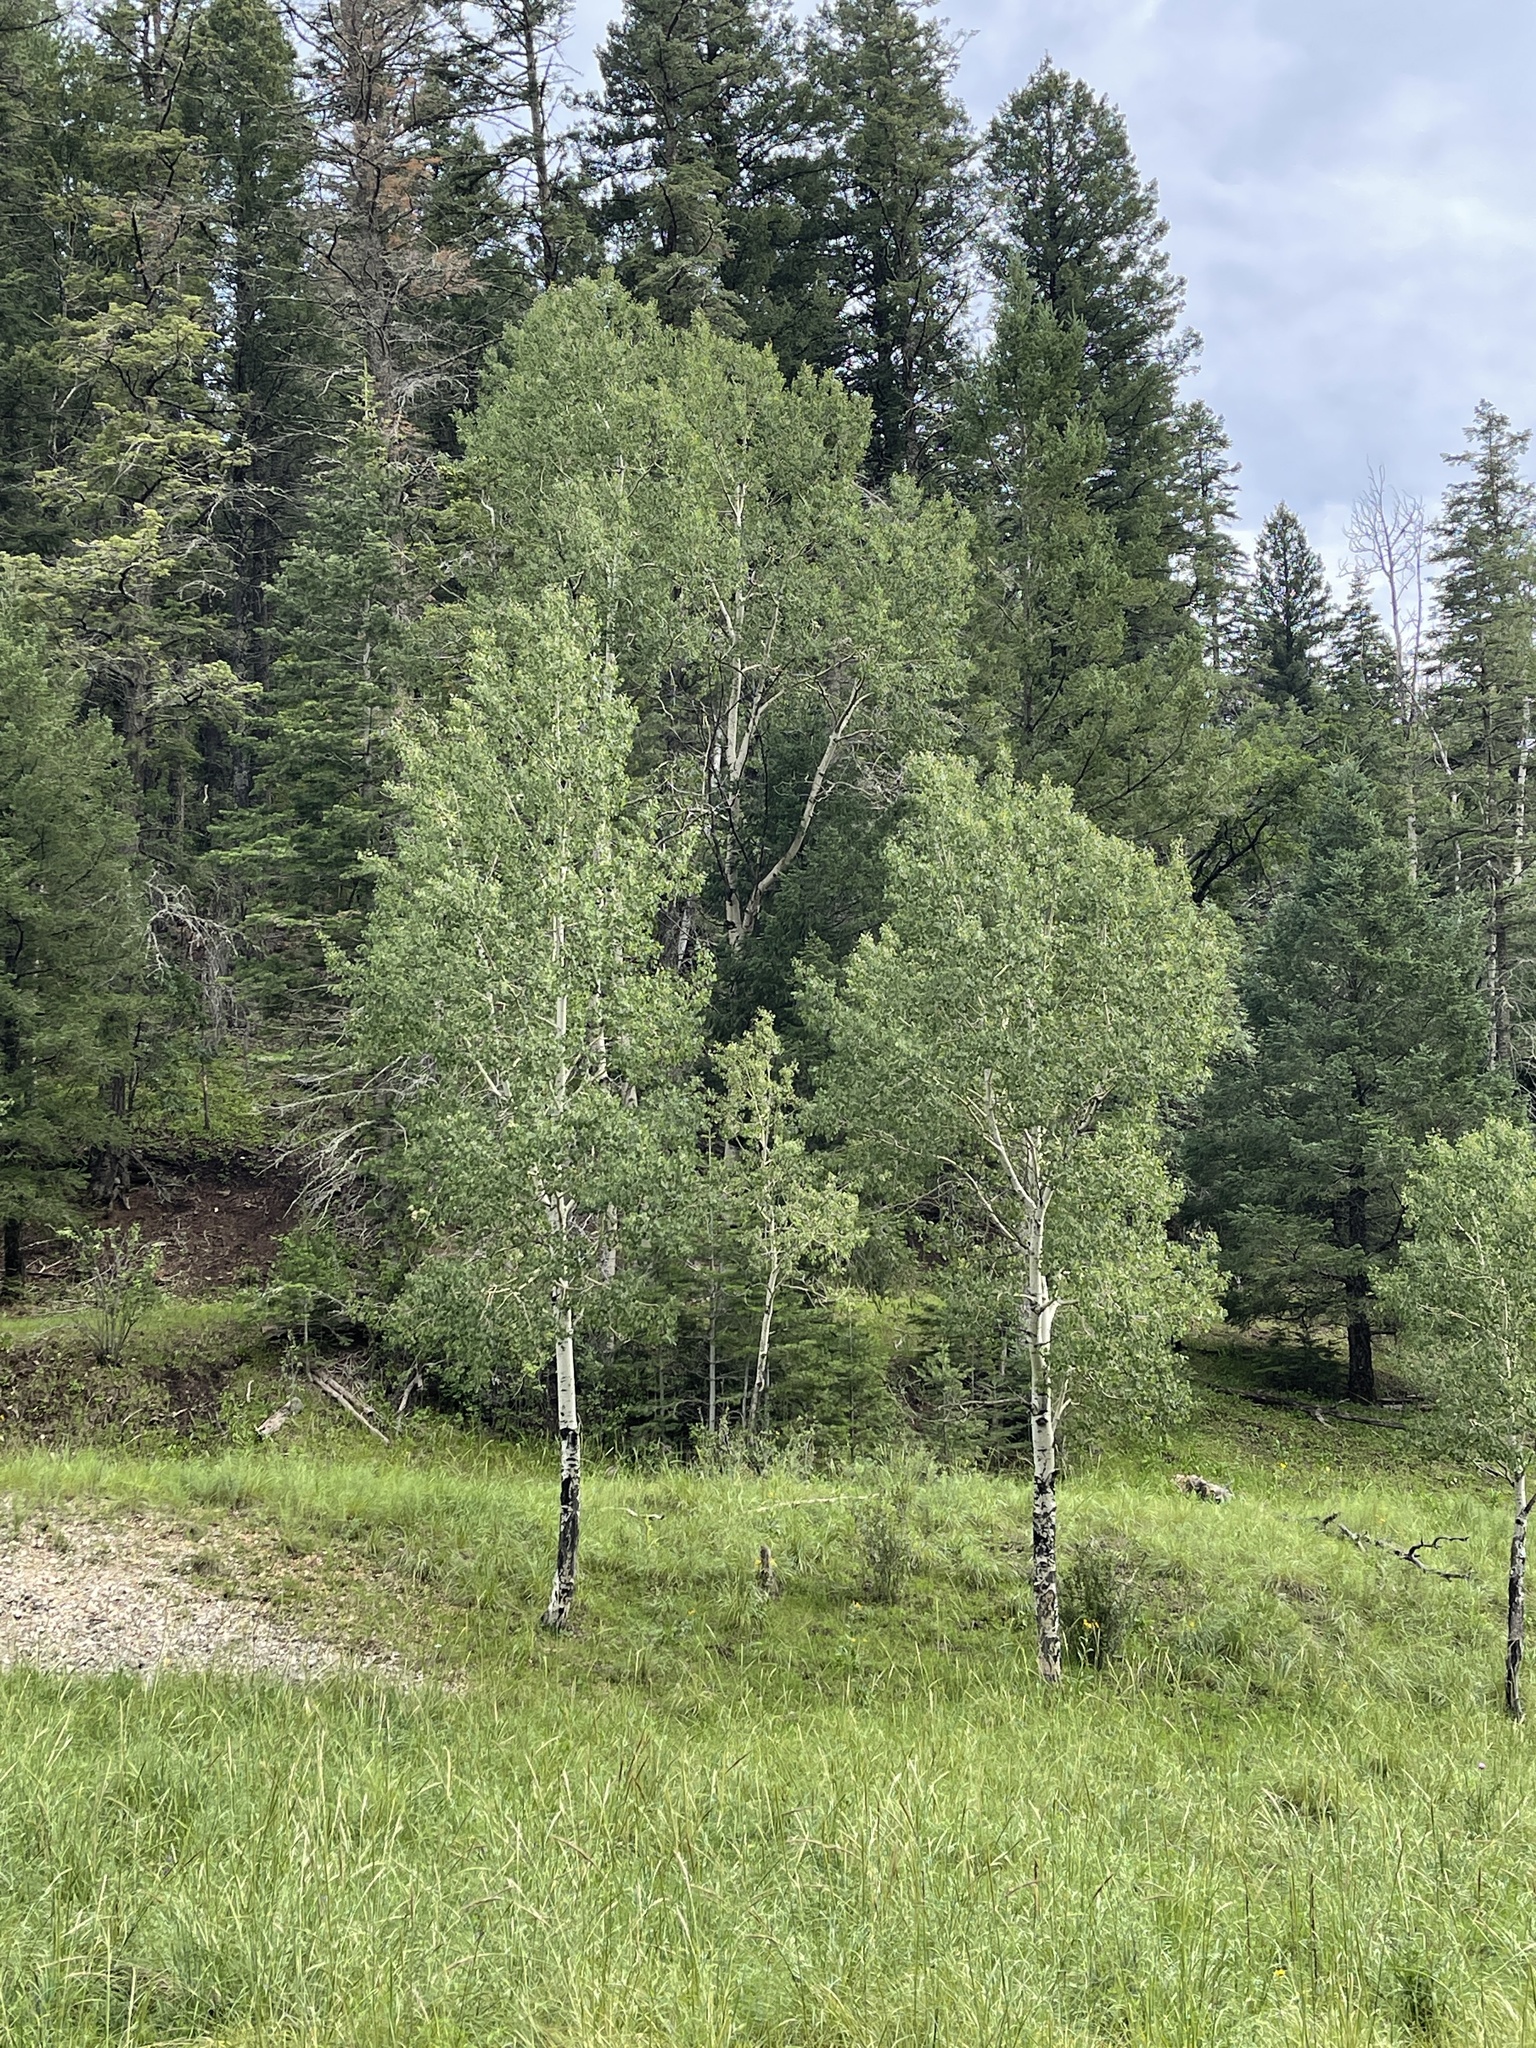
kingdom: Plantae
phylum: Tracheophyta
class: Magnoliopsida
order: Malpighiales
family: Salicaceae
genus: Populus
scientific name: Populus tremuloides
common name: Quaking aspen
